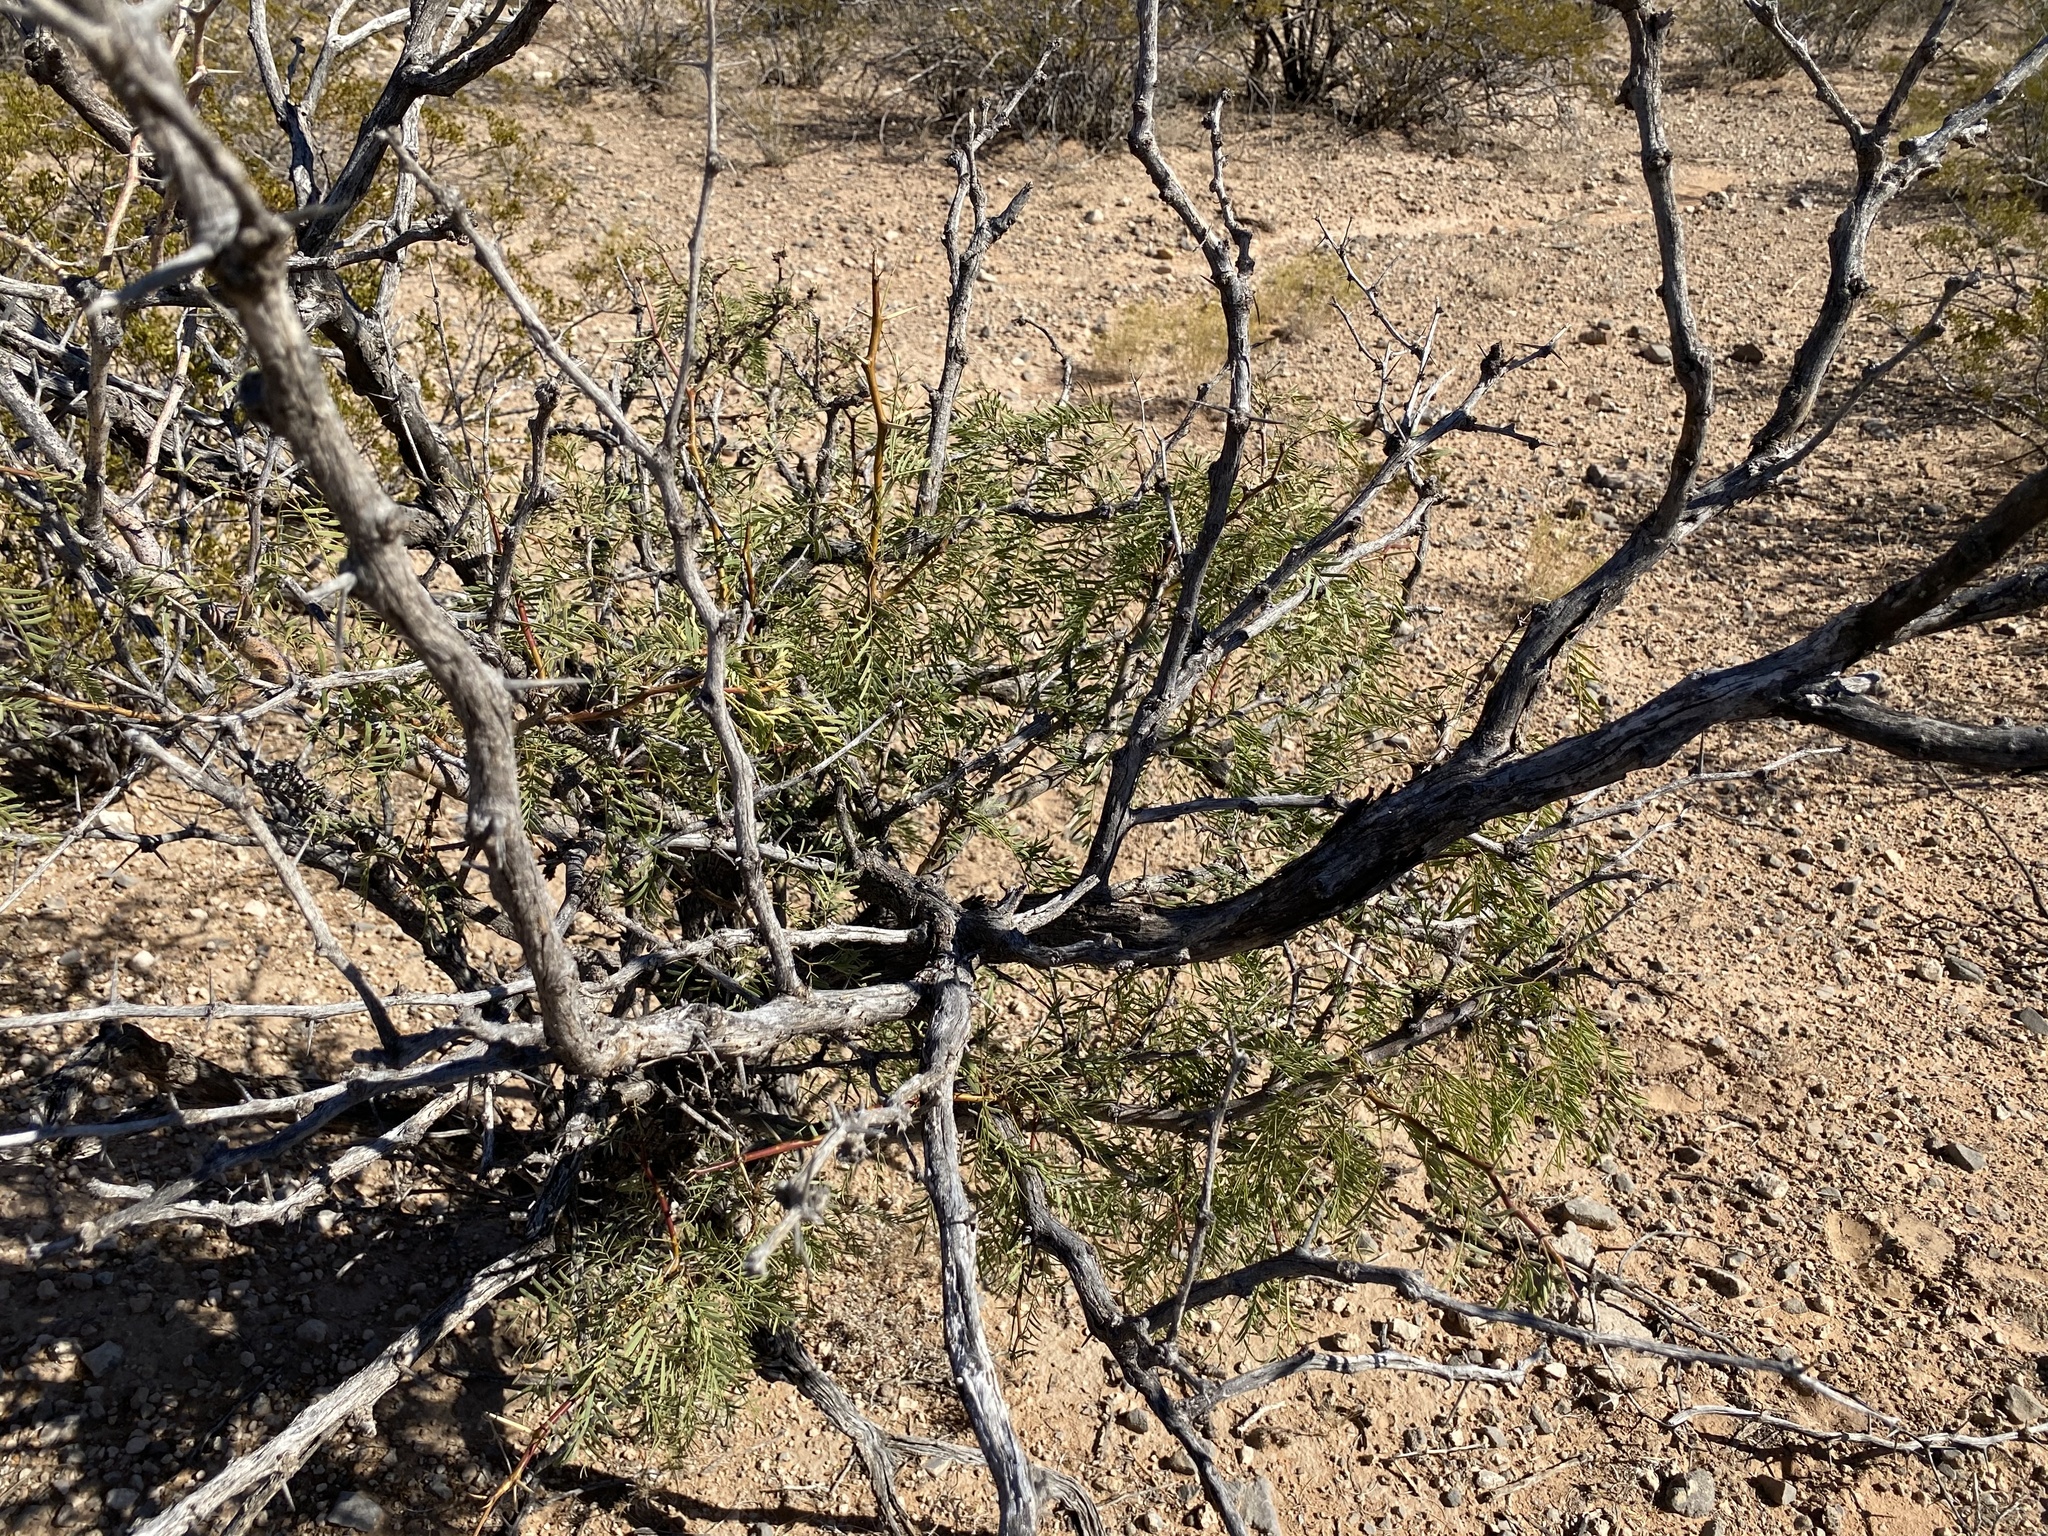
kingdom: Plantae
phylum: Tracheophyta
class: Magnoliopsida
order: Fabales
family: Fabaceae
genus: Prosopis
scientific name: Prosopis glandulosa
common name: Honey mesquite
